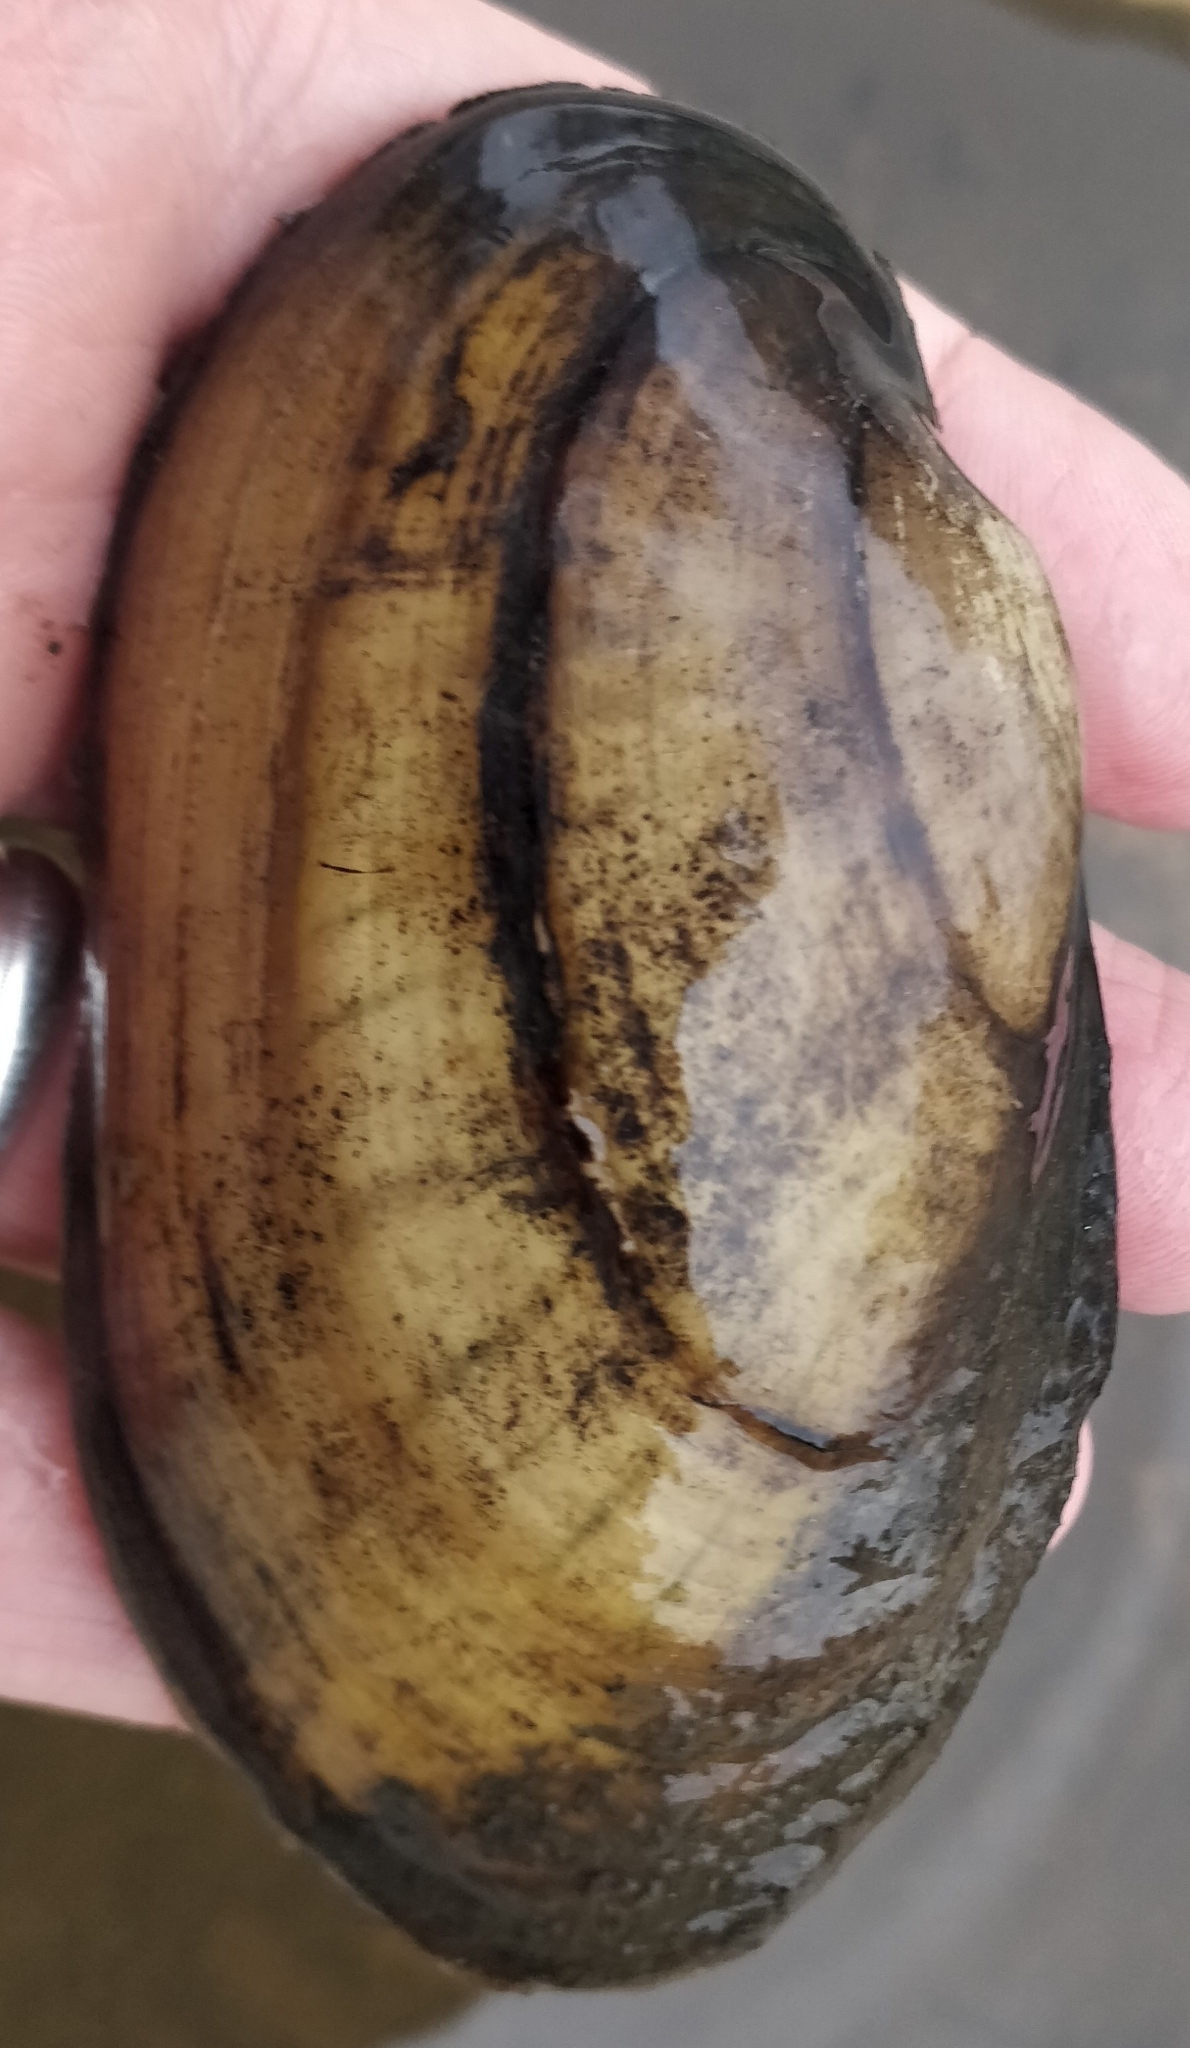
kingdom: Animalia
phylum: Mollusca
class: Bivalvia
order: Unionida
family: Unionidae
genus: Lampsilis
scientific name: Lampsilis siliquoidea
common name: Fatmucket
